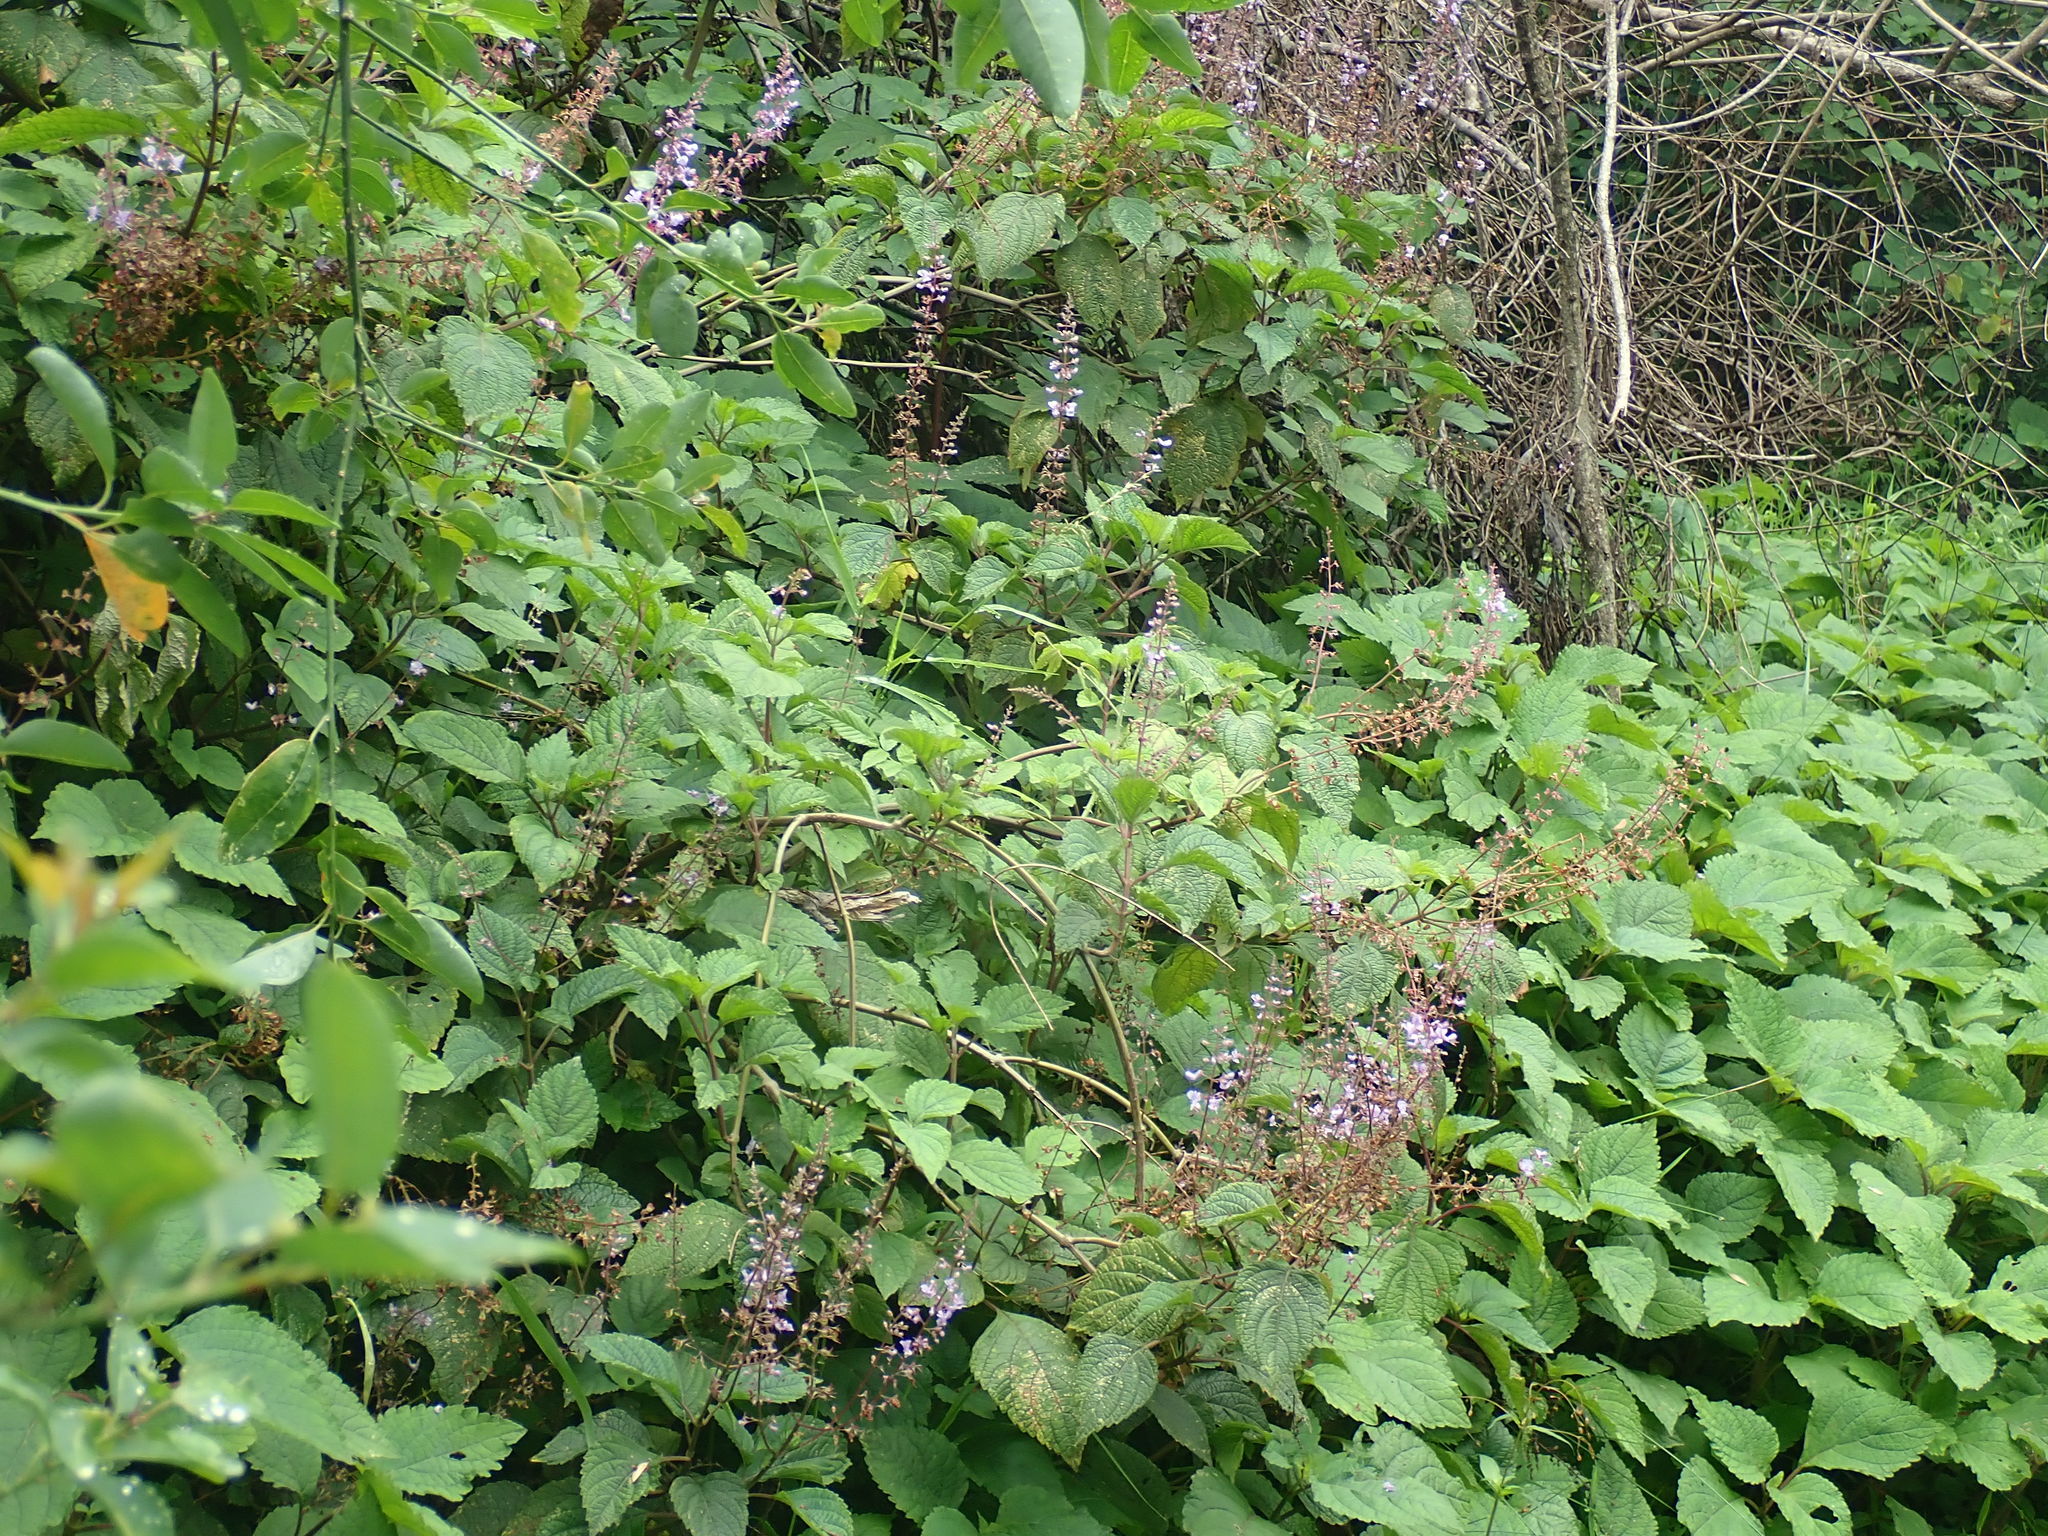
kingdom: Plantae
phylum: Tracheophyta
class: Magnoliopsida
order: Lamiales
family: Lamiaceae
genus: Plectranthus
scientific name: Plectranthus fruticosus
